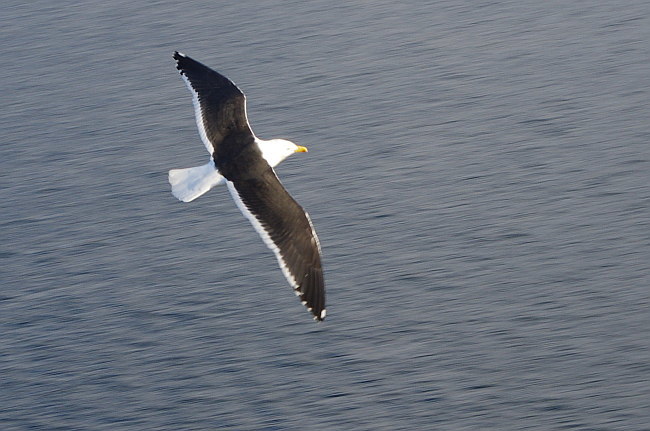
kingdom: Animalia
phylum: Chordata
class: Aves
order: Charadriiformes
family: Laridae
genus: Larus
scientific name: Larus dominicanus
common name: Kelp gull
